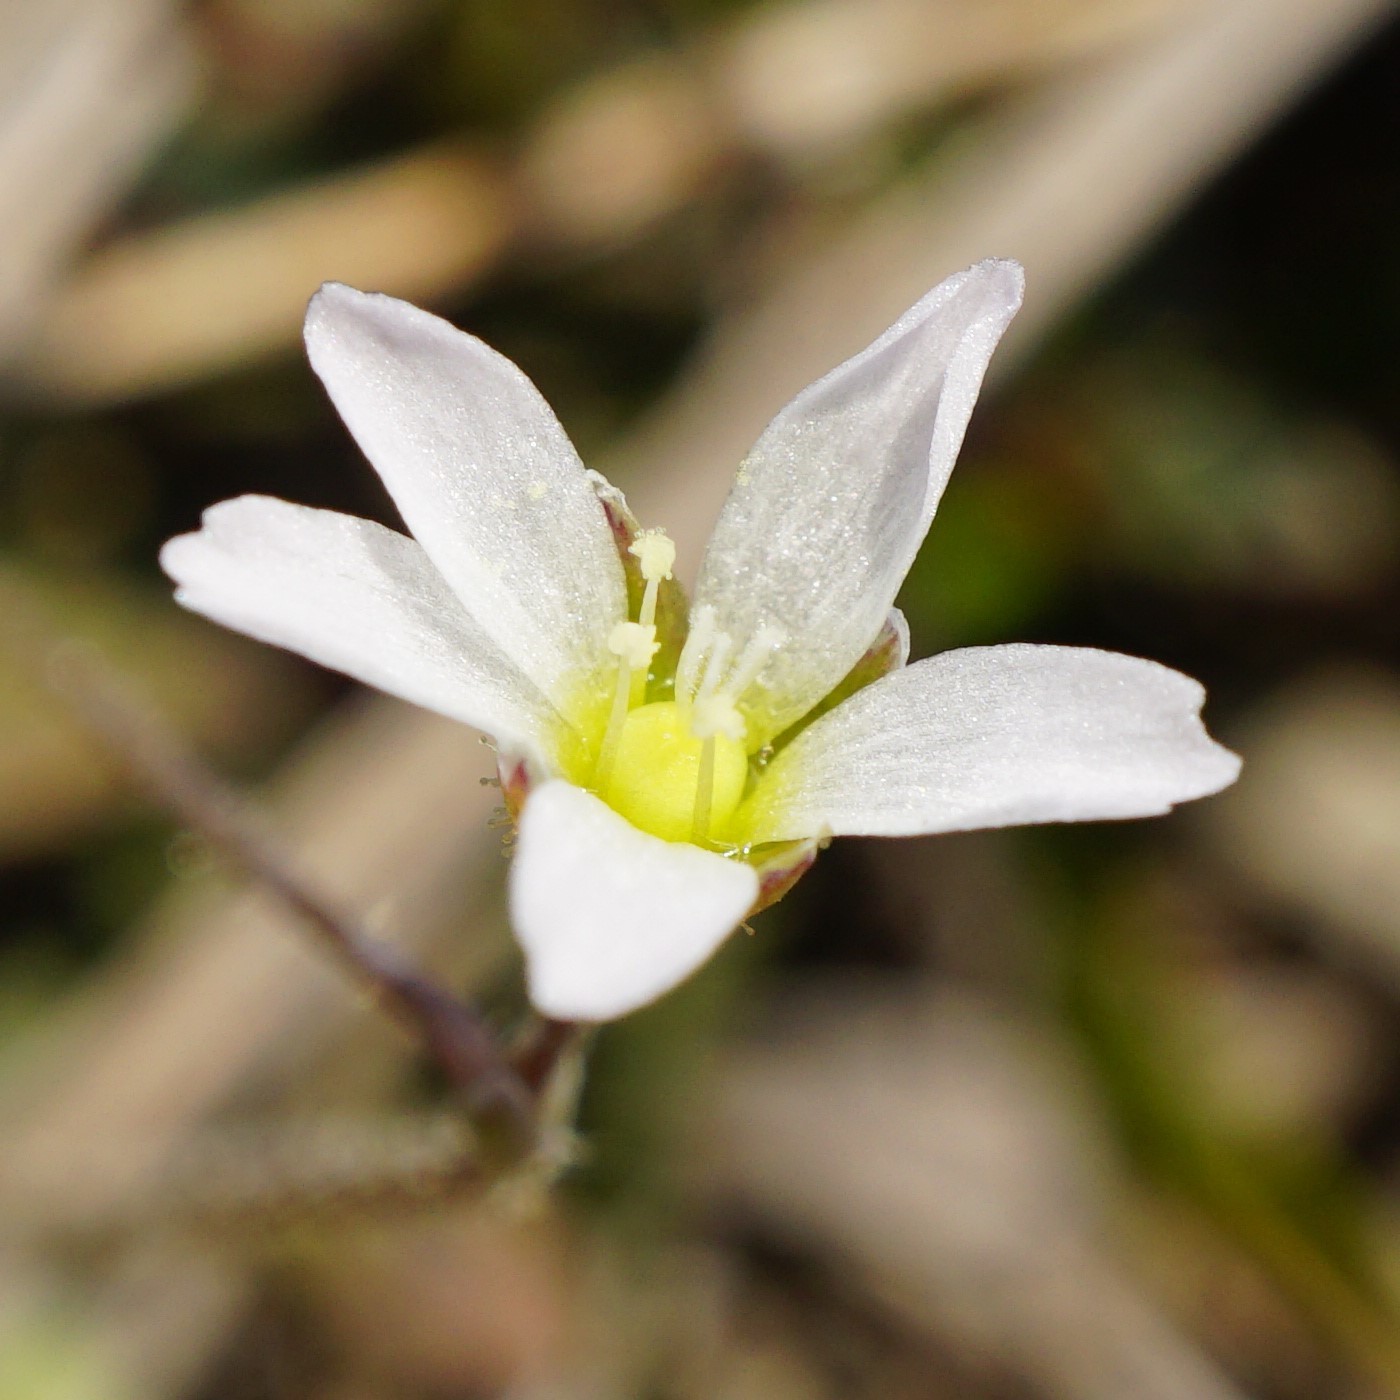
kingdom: Plantae
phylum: Tracheophyta
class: Magnoliopsida
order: Caryophyllales
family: Caryophyllaceae
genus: Holosteum
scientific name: Holosteum umbellatum
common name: Jagged chickweed
